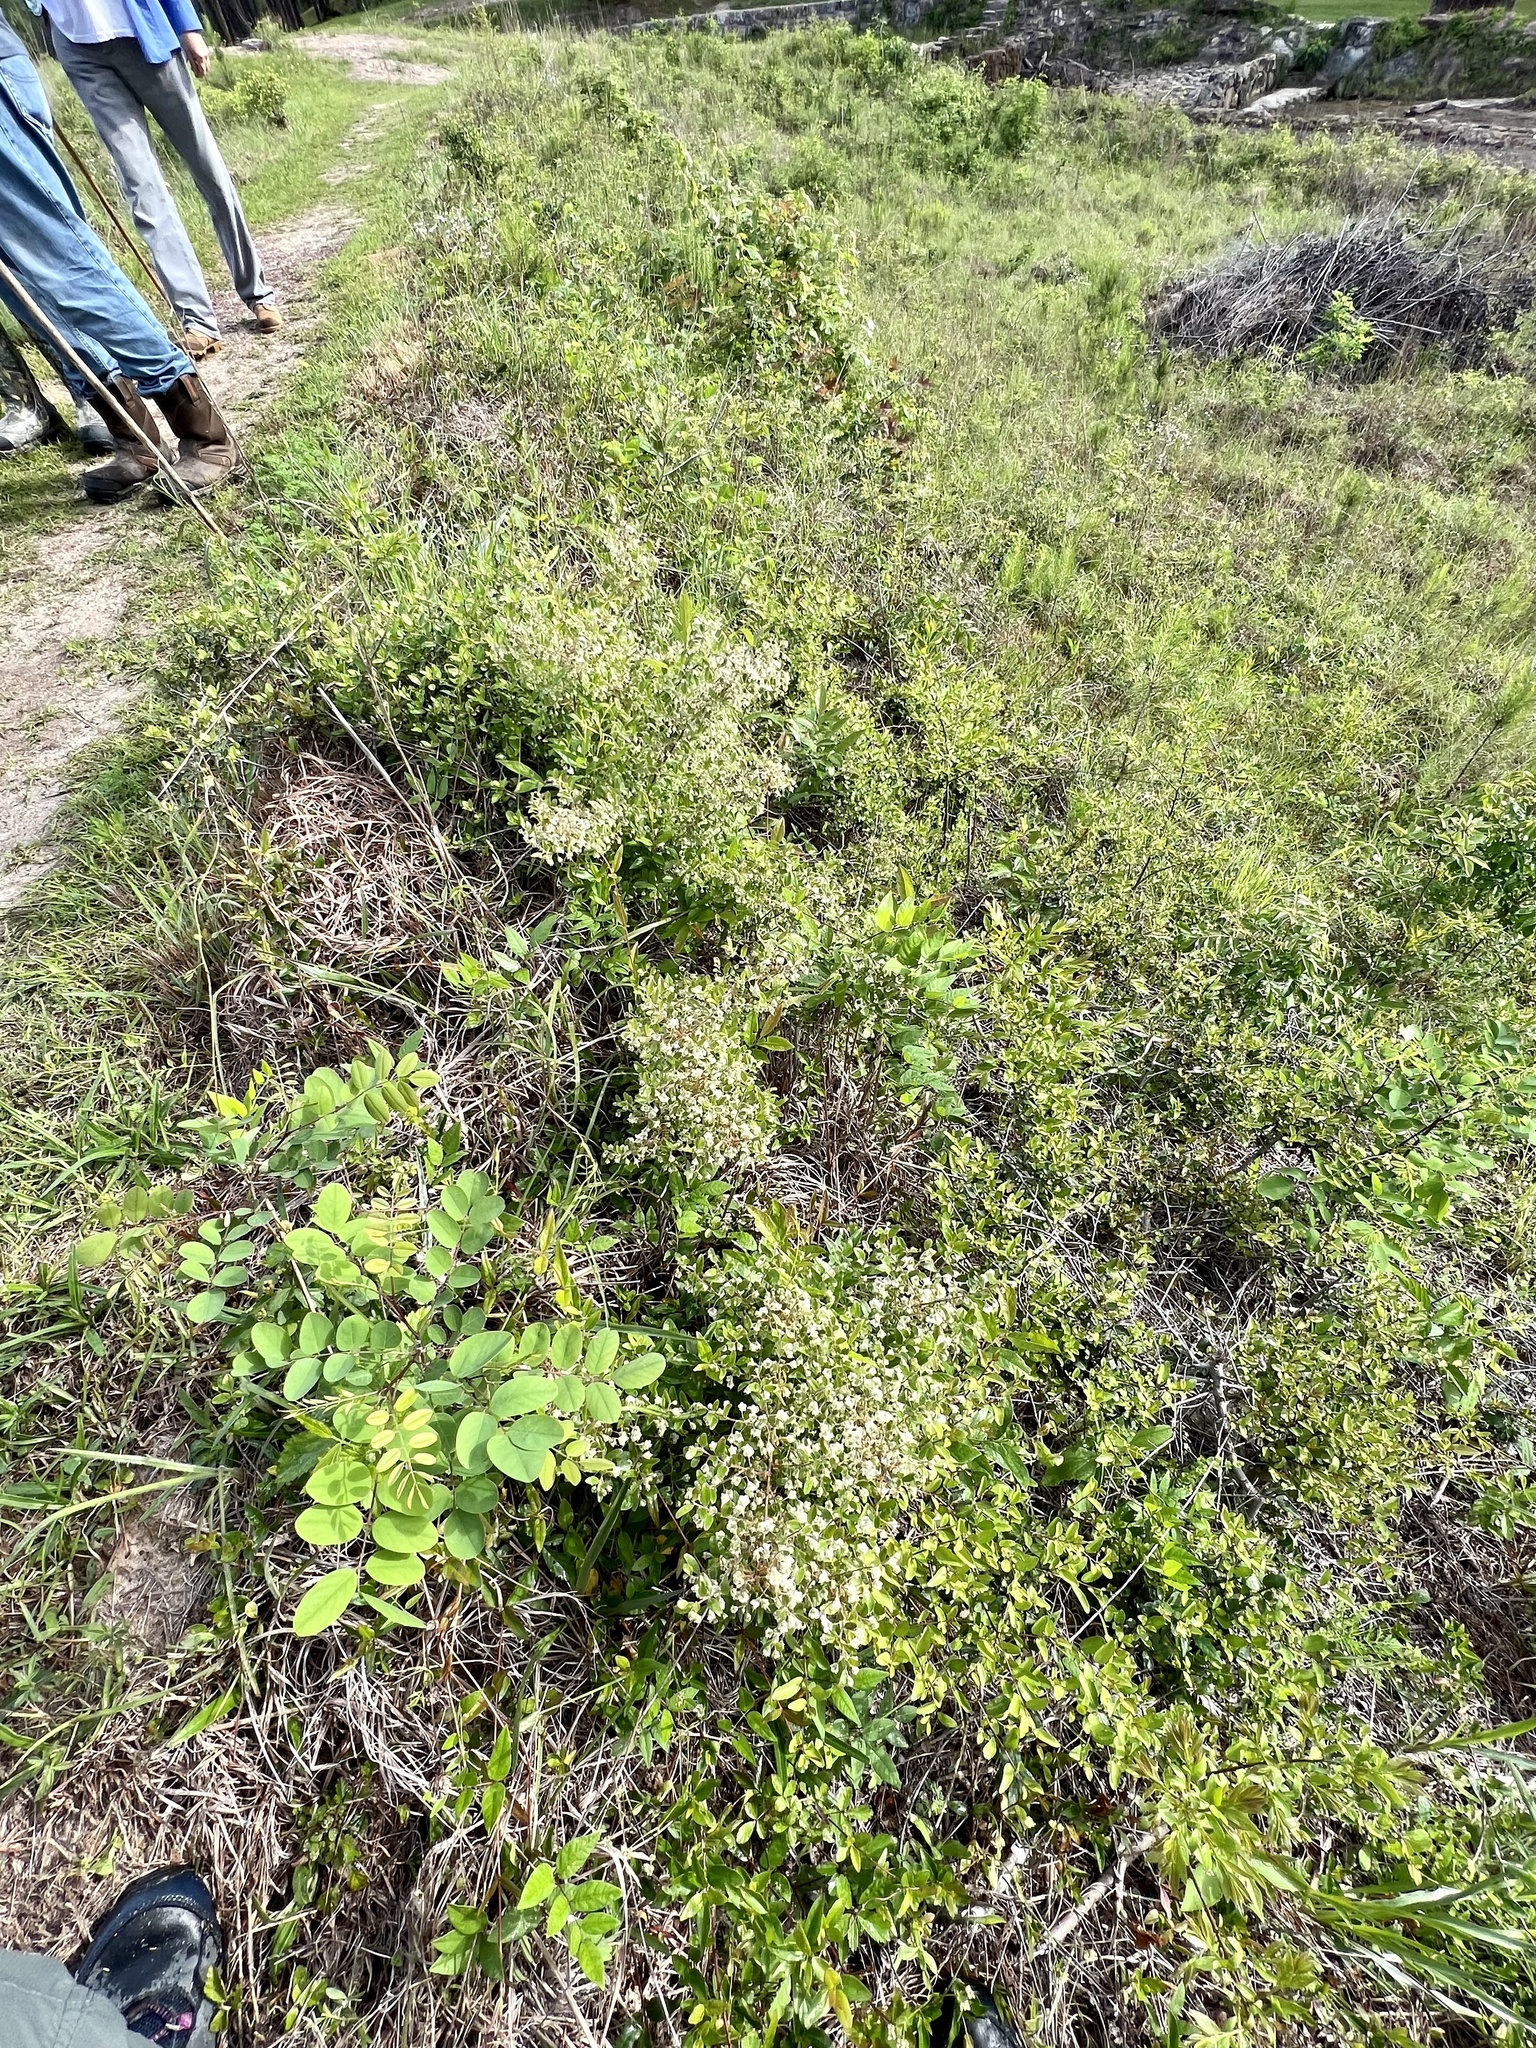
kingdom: Plantae
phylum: Tracheophyta
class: Magnoliopsida
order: Ericales
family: Ericaceae
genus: Vaccinium
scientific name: Vaccinium
